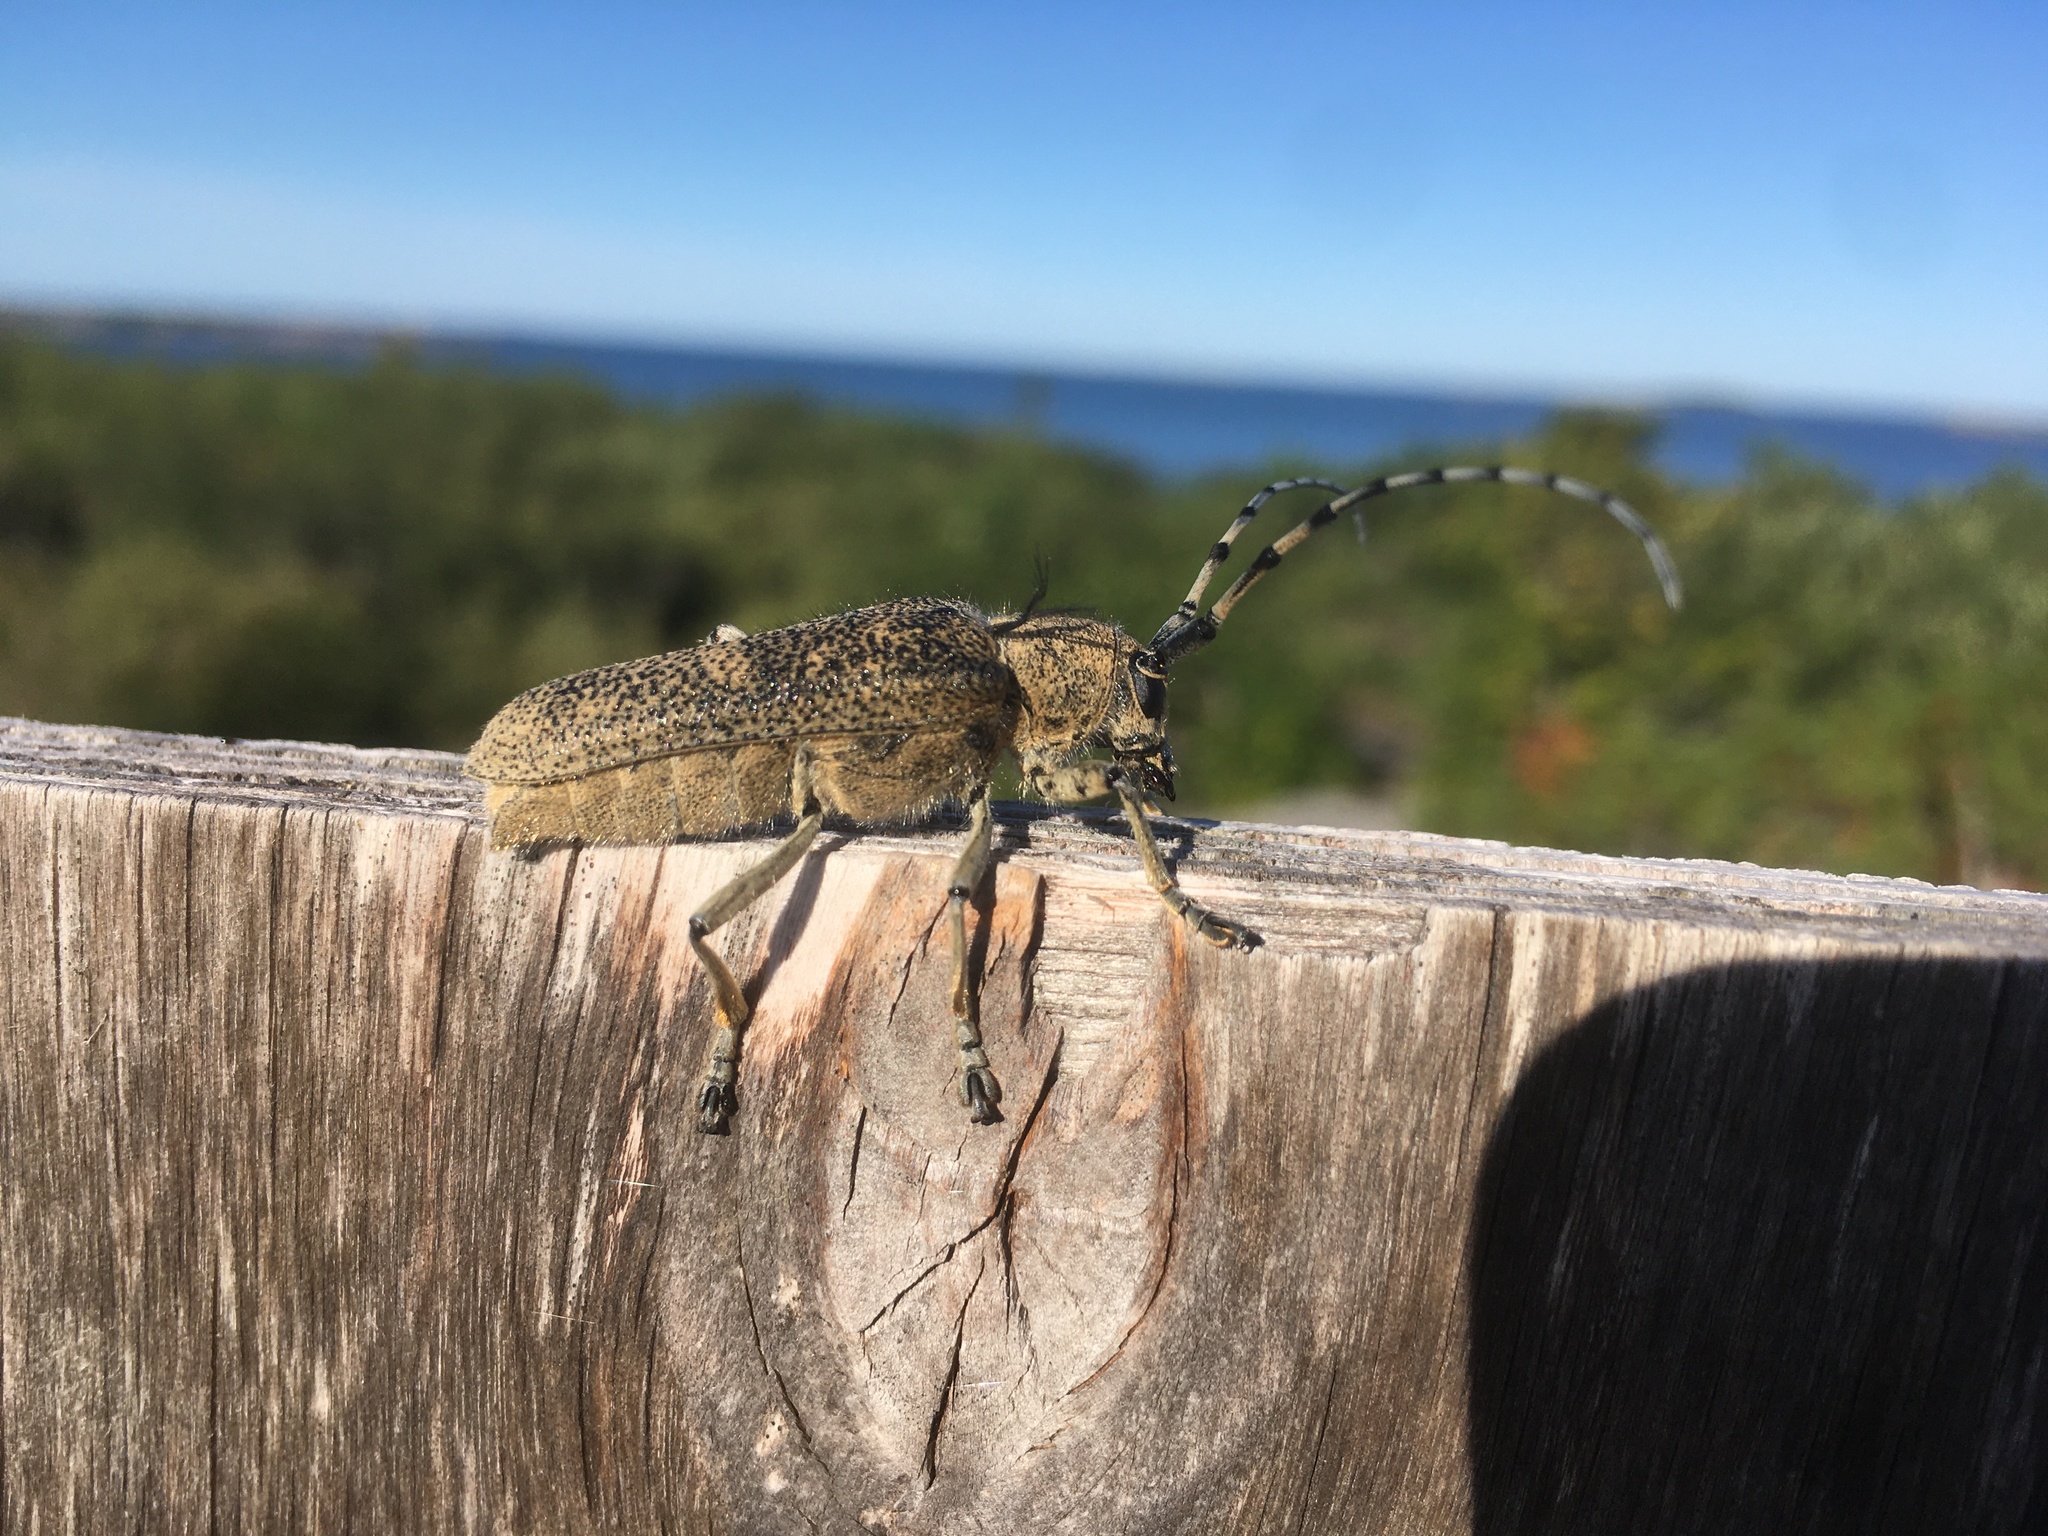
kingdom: Animalia
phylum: Arthropoda
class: Insecta
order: Coleoptera
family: Cerambycidae
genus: Saperda
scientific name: Saperda carcharias
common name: Poplar borer
